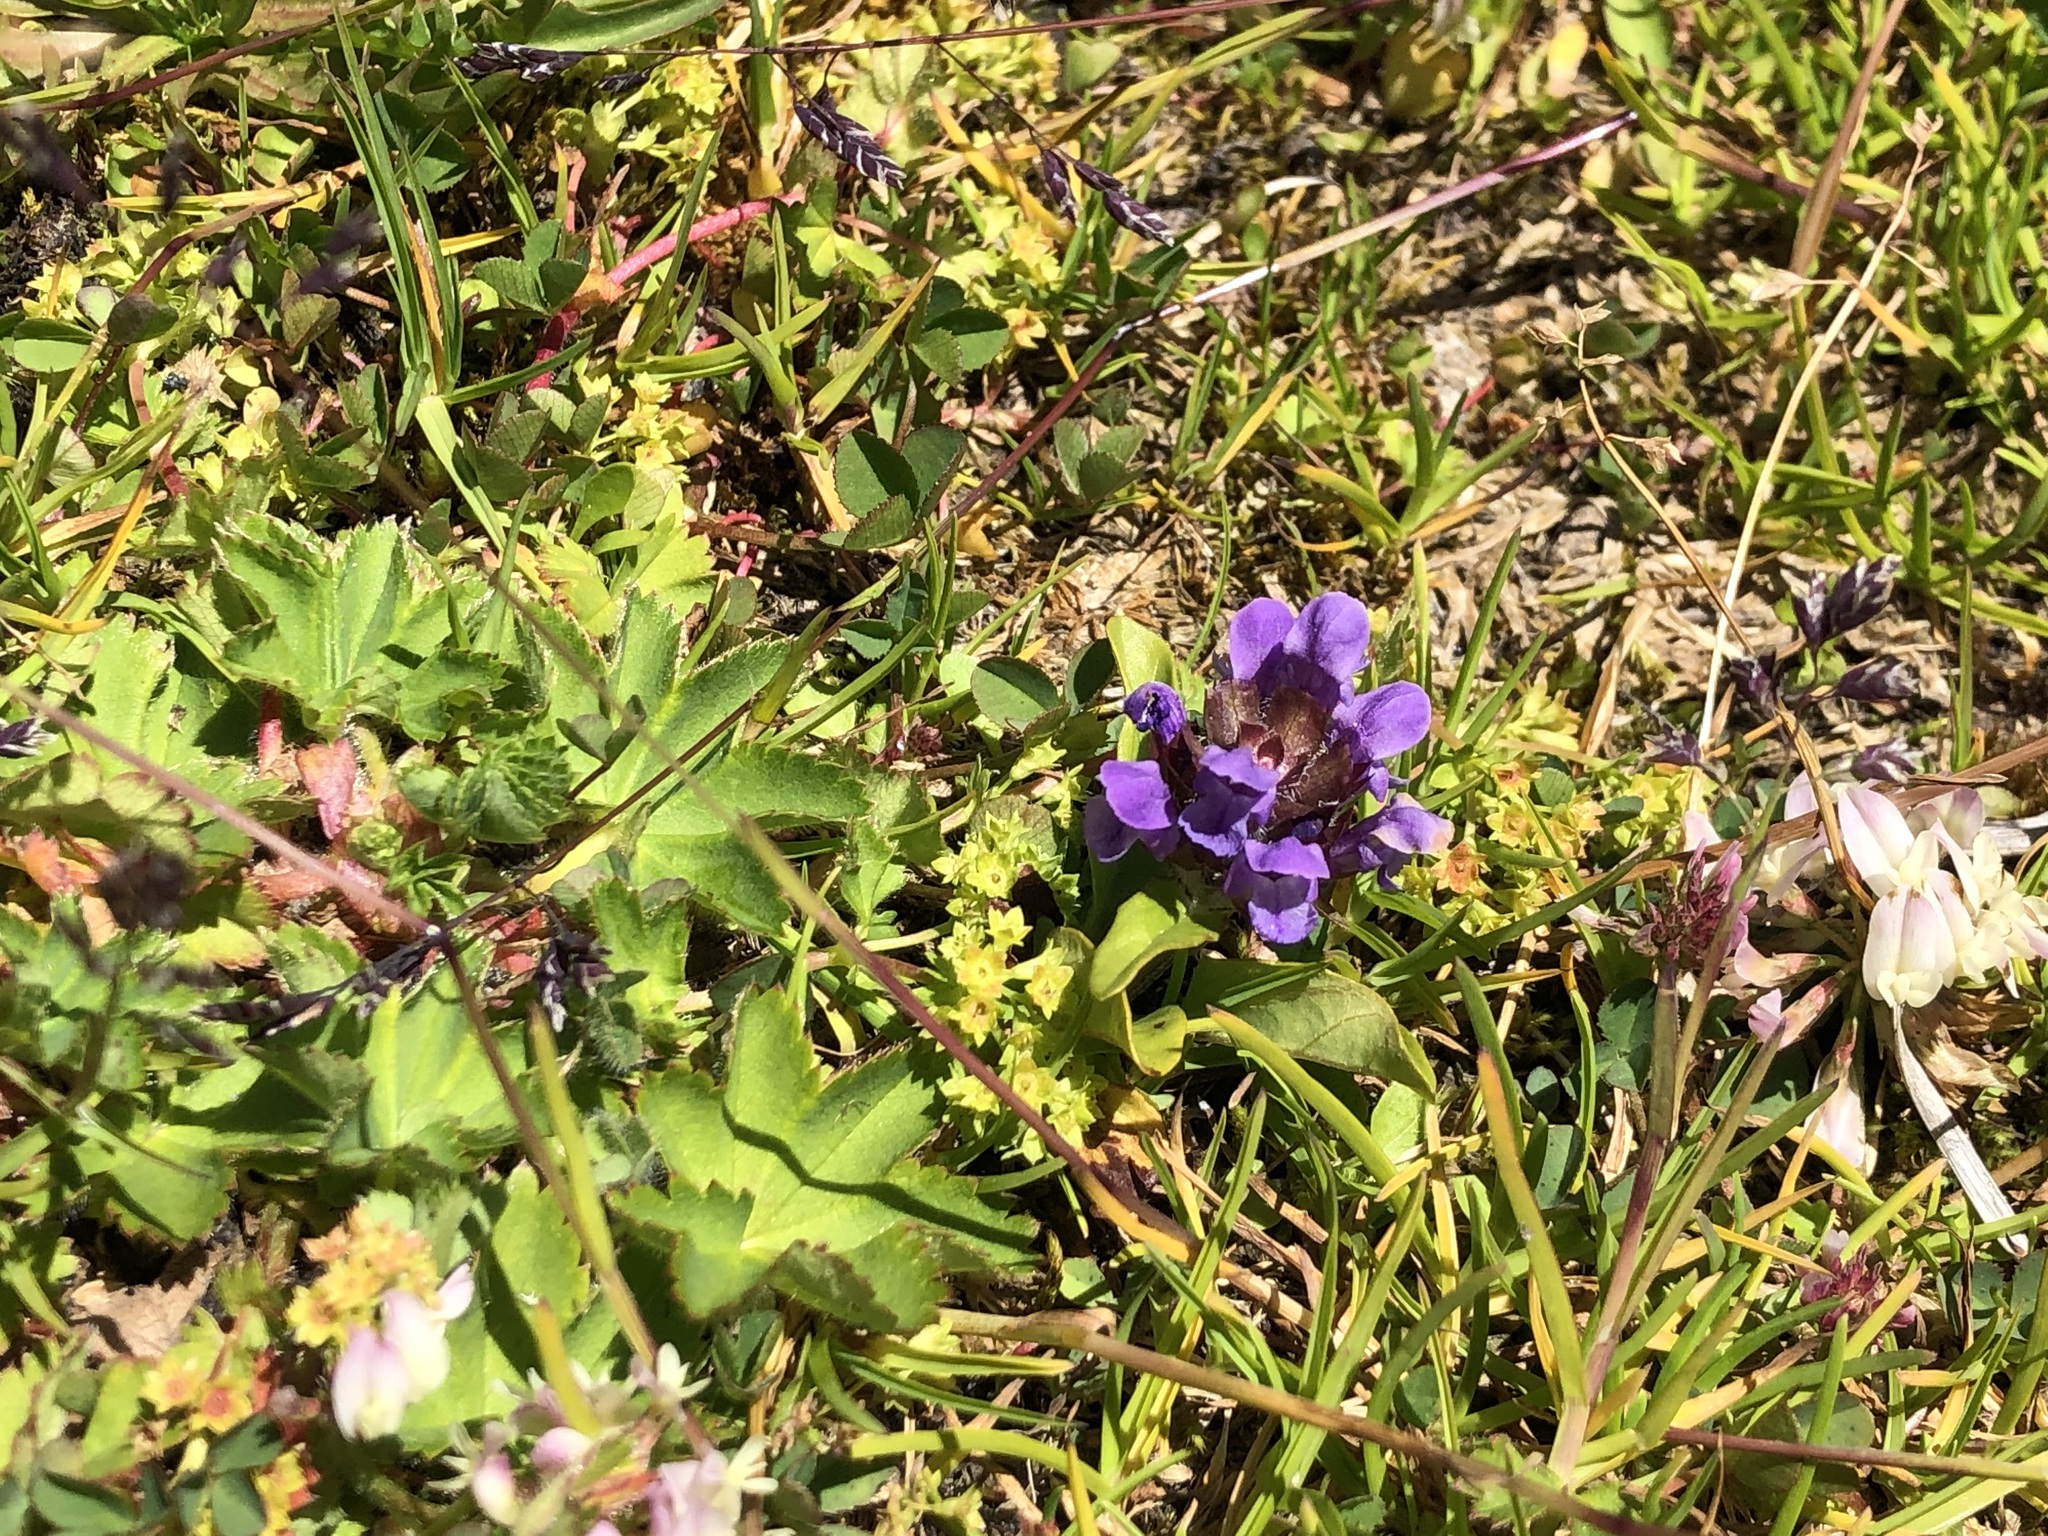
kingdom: Plantae
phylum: Tracheophyta
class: Magnoliopsida
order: Lamiales
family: Lamiaceae
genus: Prunella
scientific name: Prunella vulgaris
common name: Heal-all
